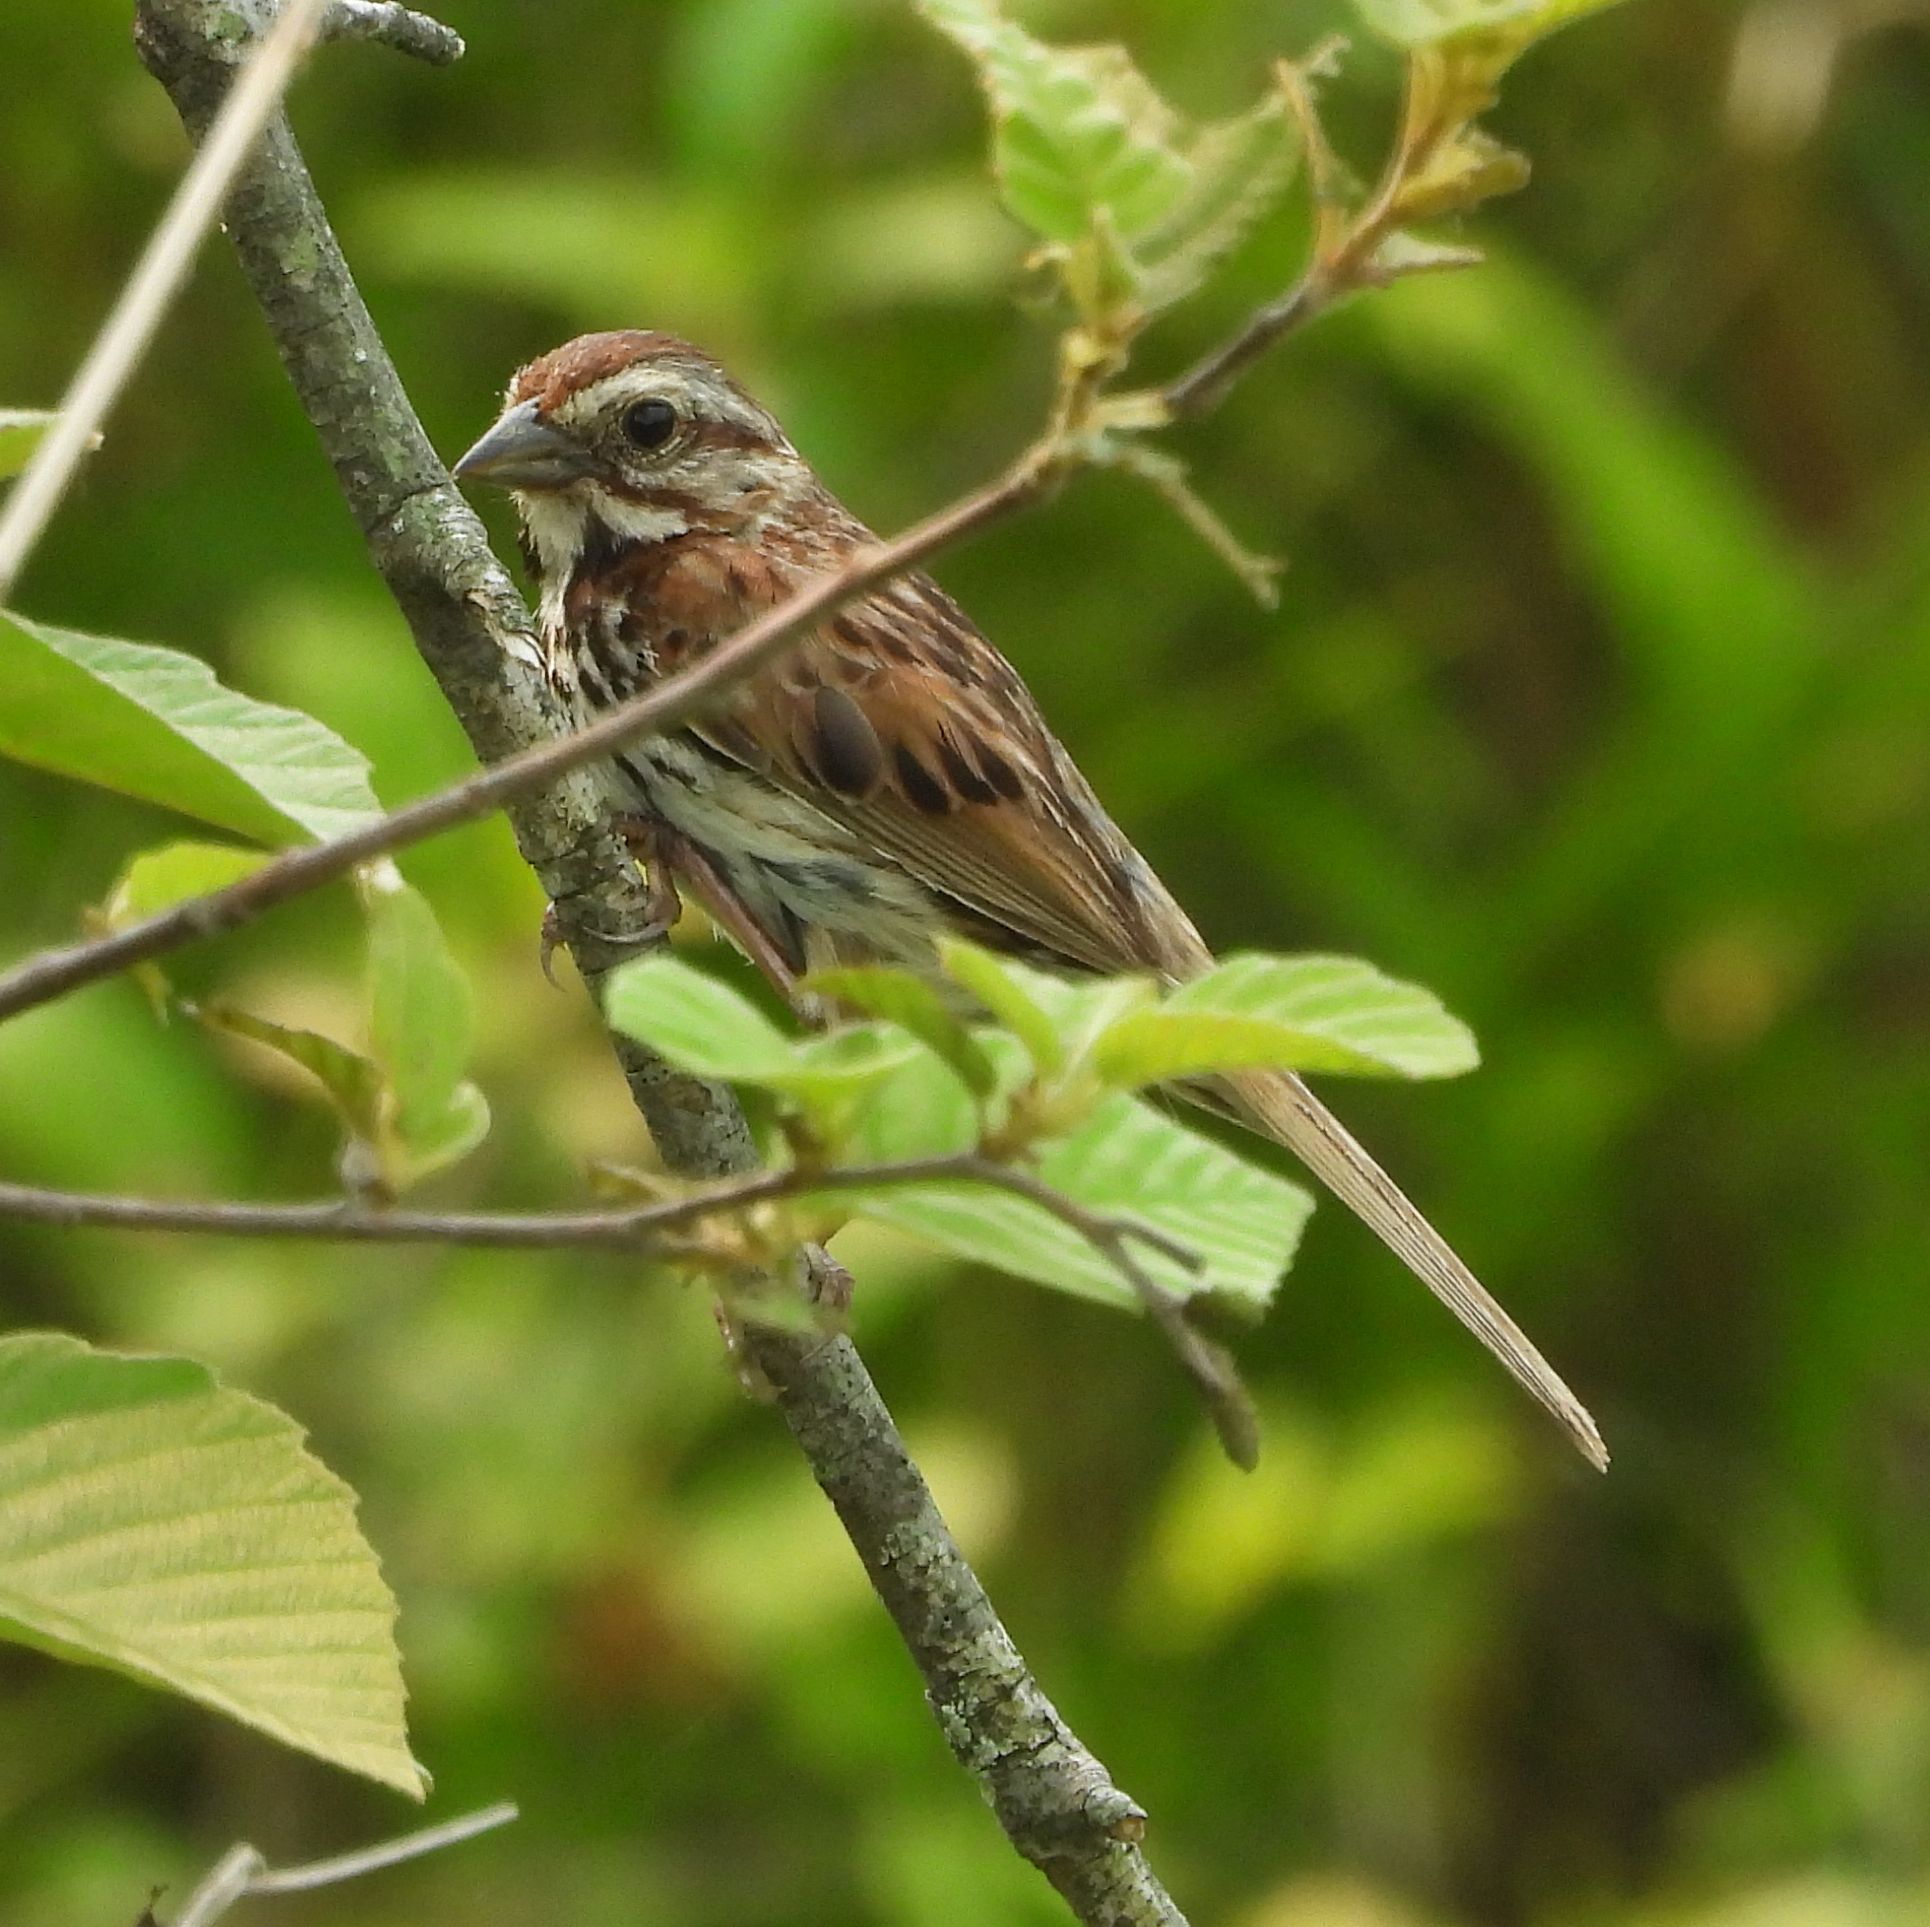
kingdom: Animalia
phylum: Chordata
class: Aves
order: Passeriformes
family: Passerellidae
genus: Melospiza
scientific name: Melospiza melodia
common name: Song sparrow
